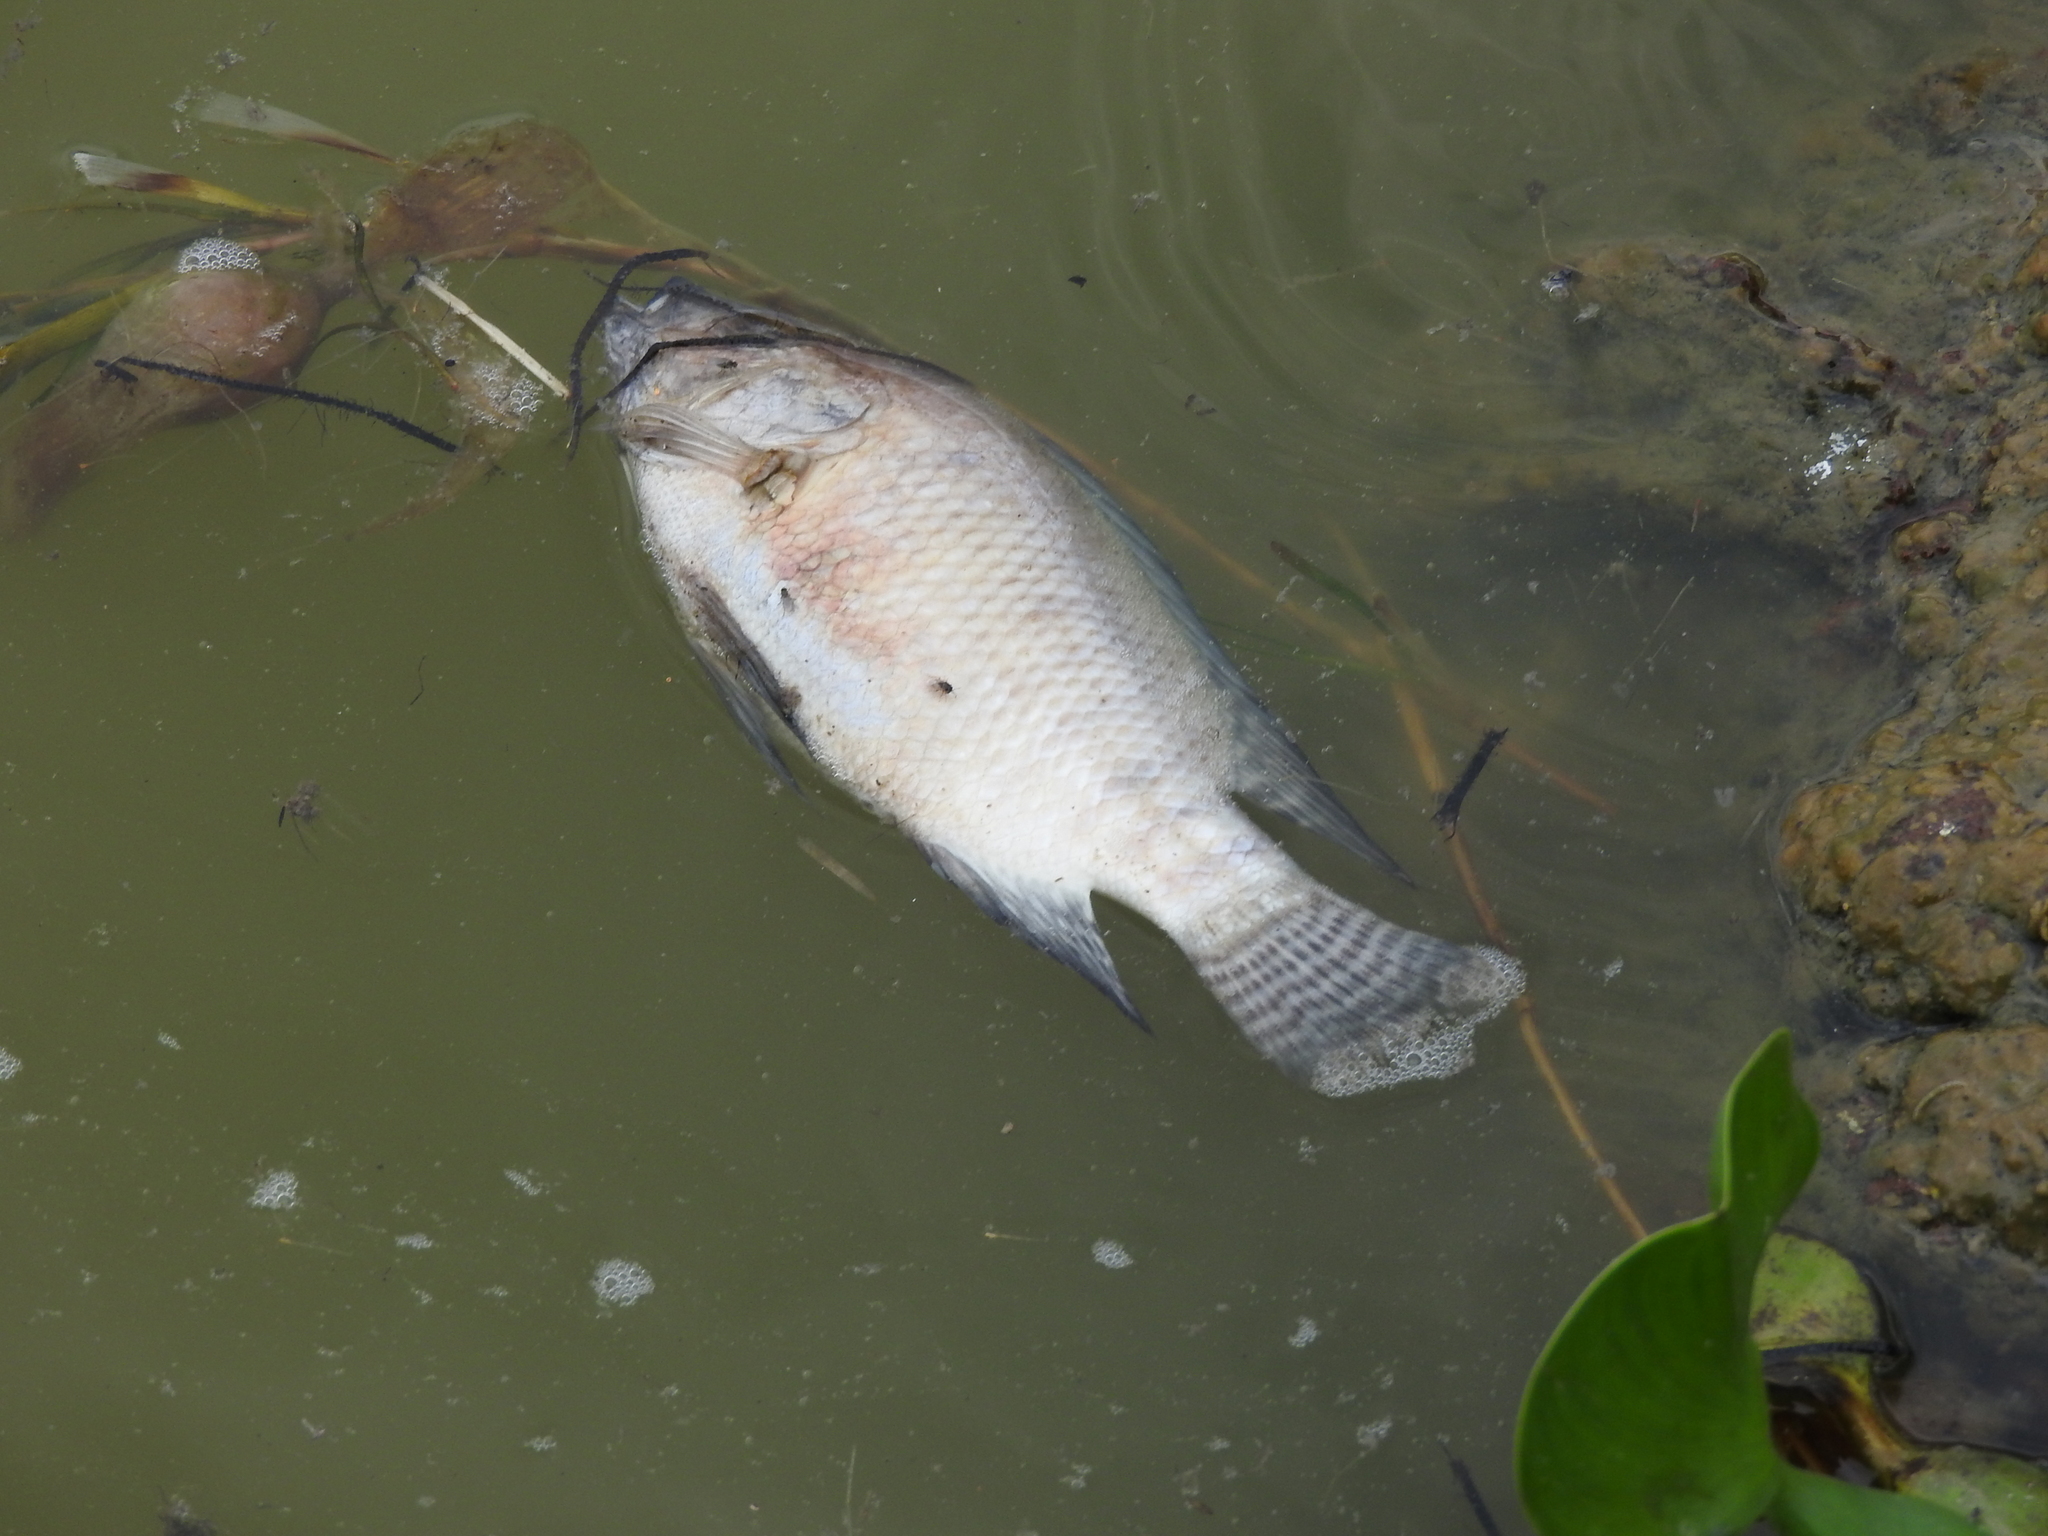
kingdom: Animalia
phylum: Chordata
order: Perciformes
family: Cichlidae
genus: Oreochromis
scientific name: Oreochromis niloticus
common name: Nile tilapia
